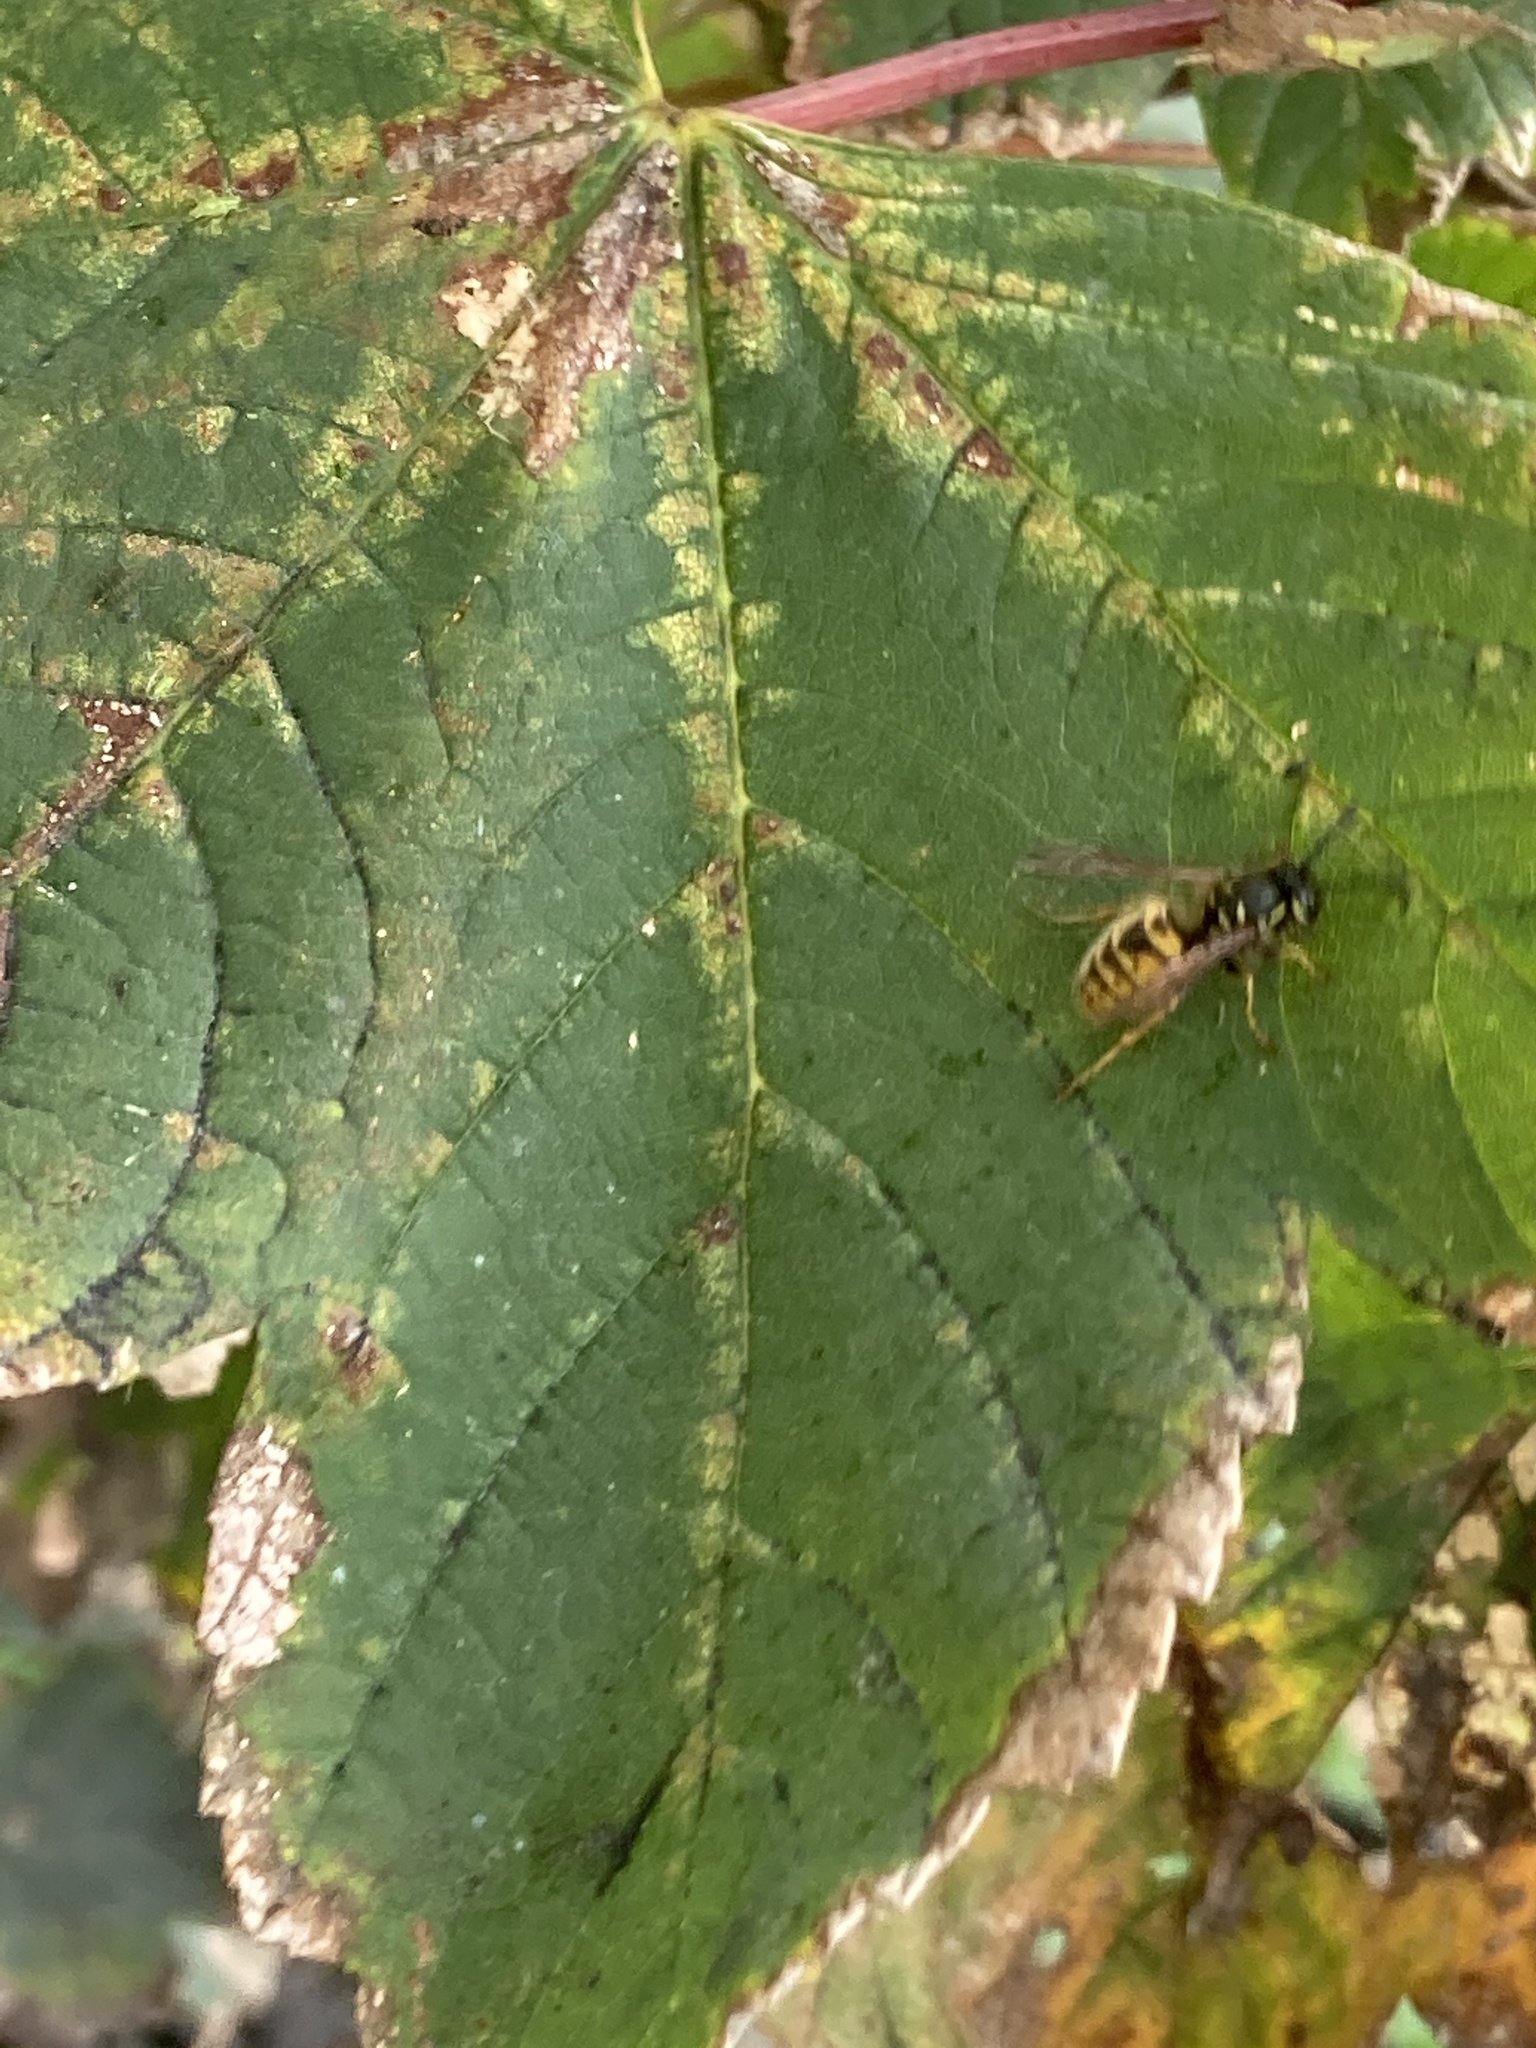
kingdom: Animalia
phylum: Arthropoda
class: Insecta
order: Hymenoptera
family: Vespidae
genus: Vespula
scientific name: Vespula vulgaris
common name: Common wasp
